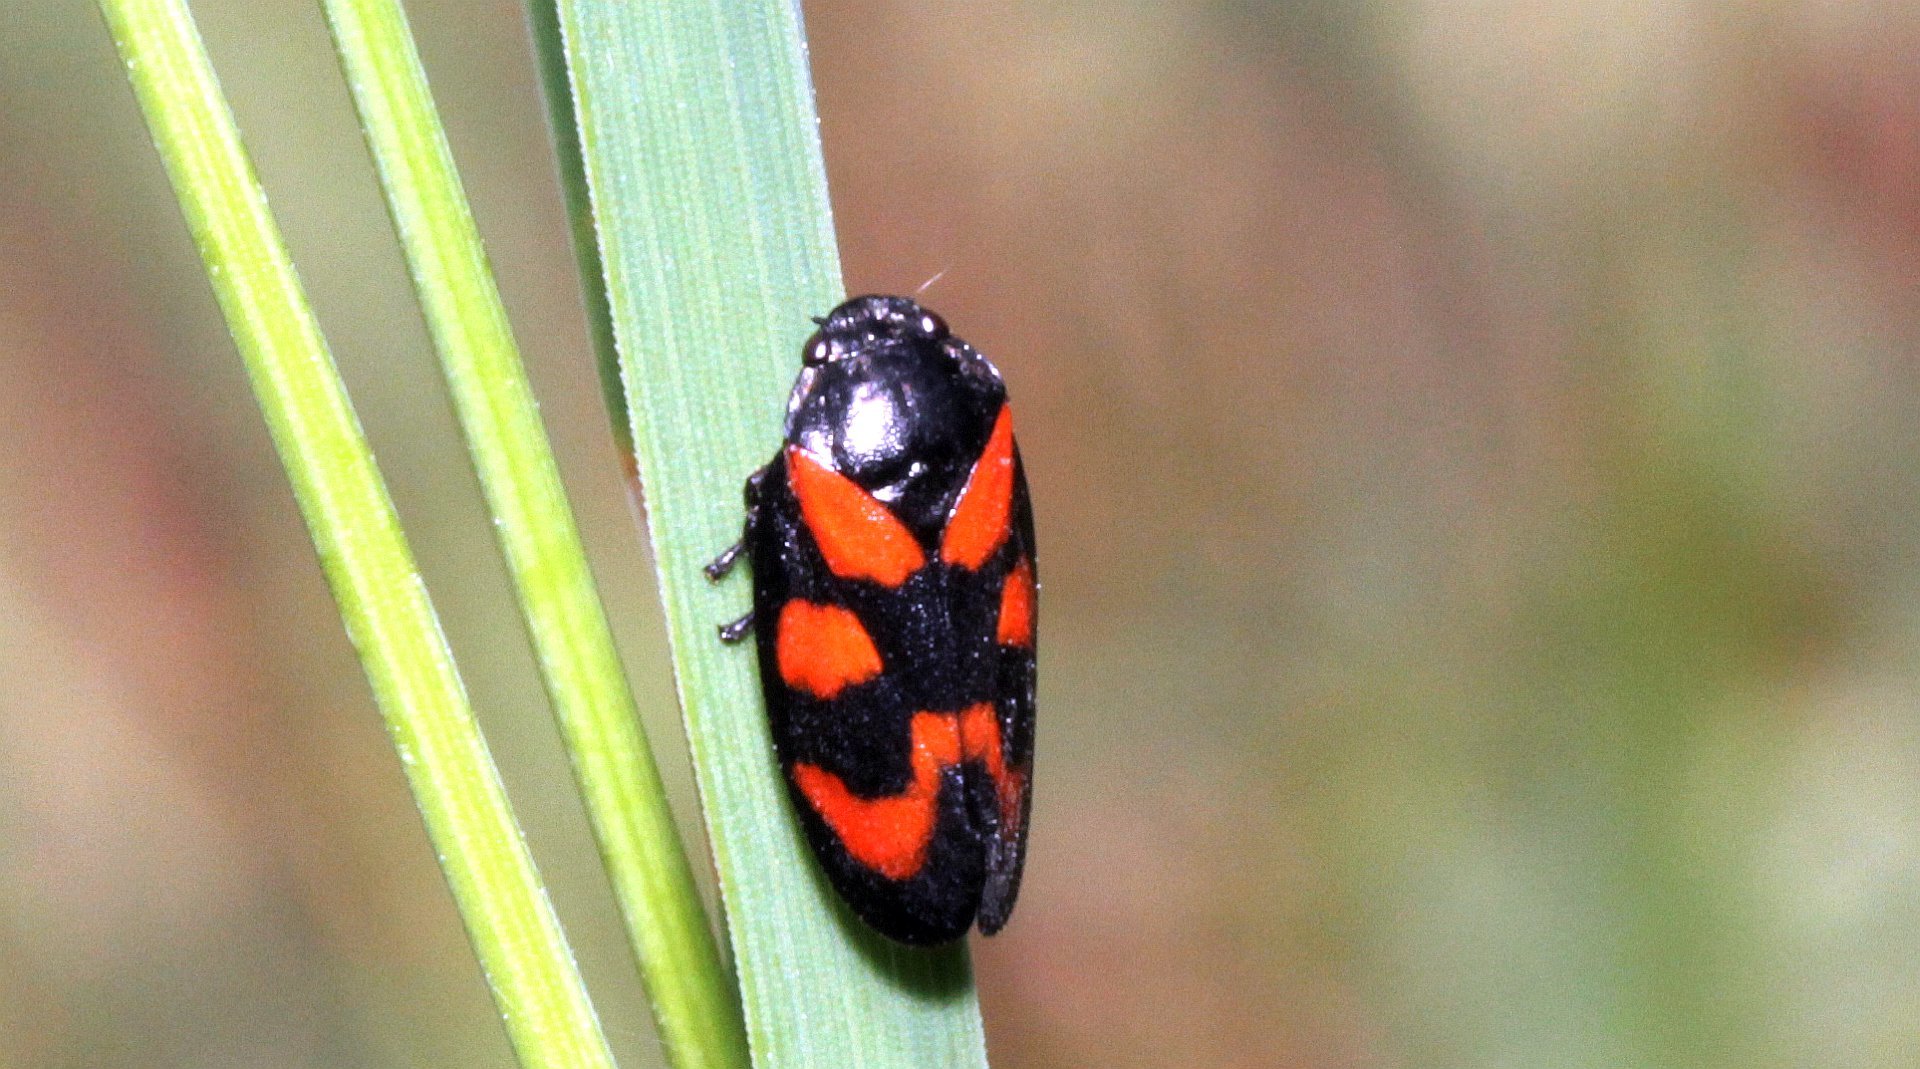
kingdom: Animalia
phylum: Arthropoda
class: Insecta
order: Hemiptera
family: Cercopidae
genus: Cercopis
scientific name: Cercopis vulnerata
